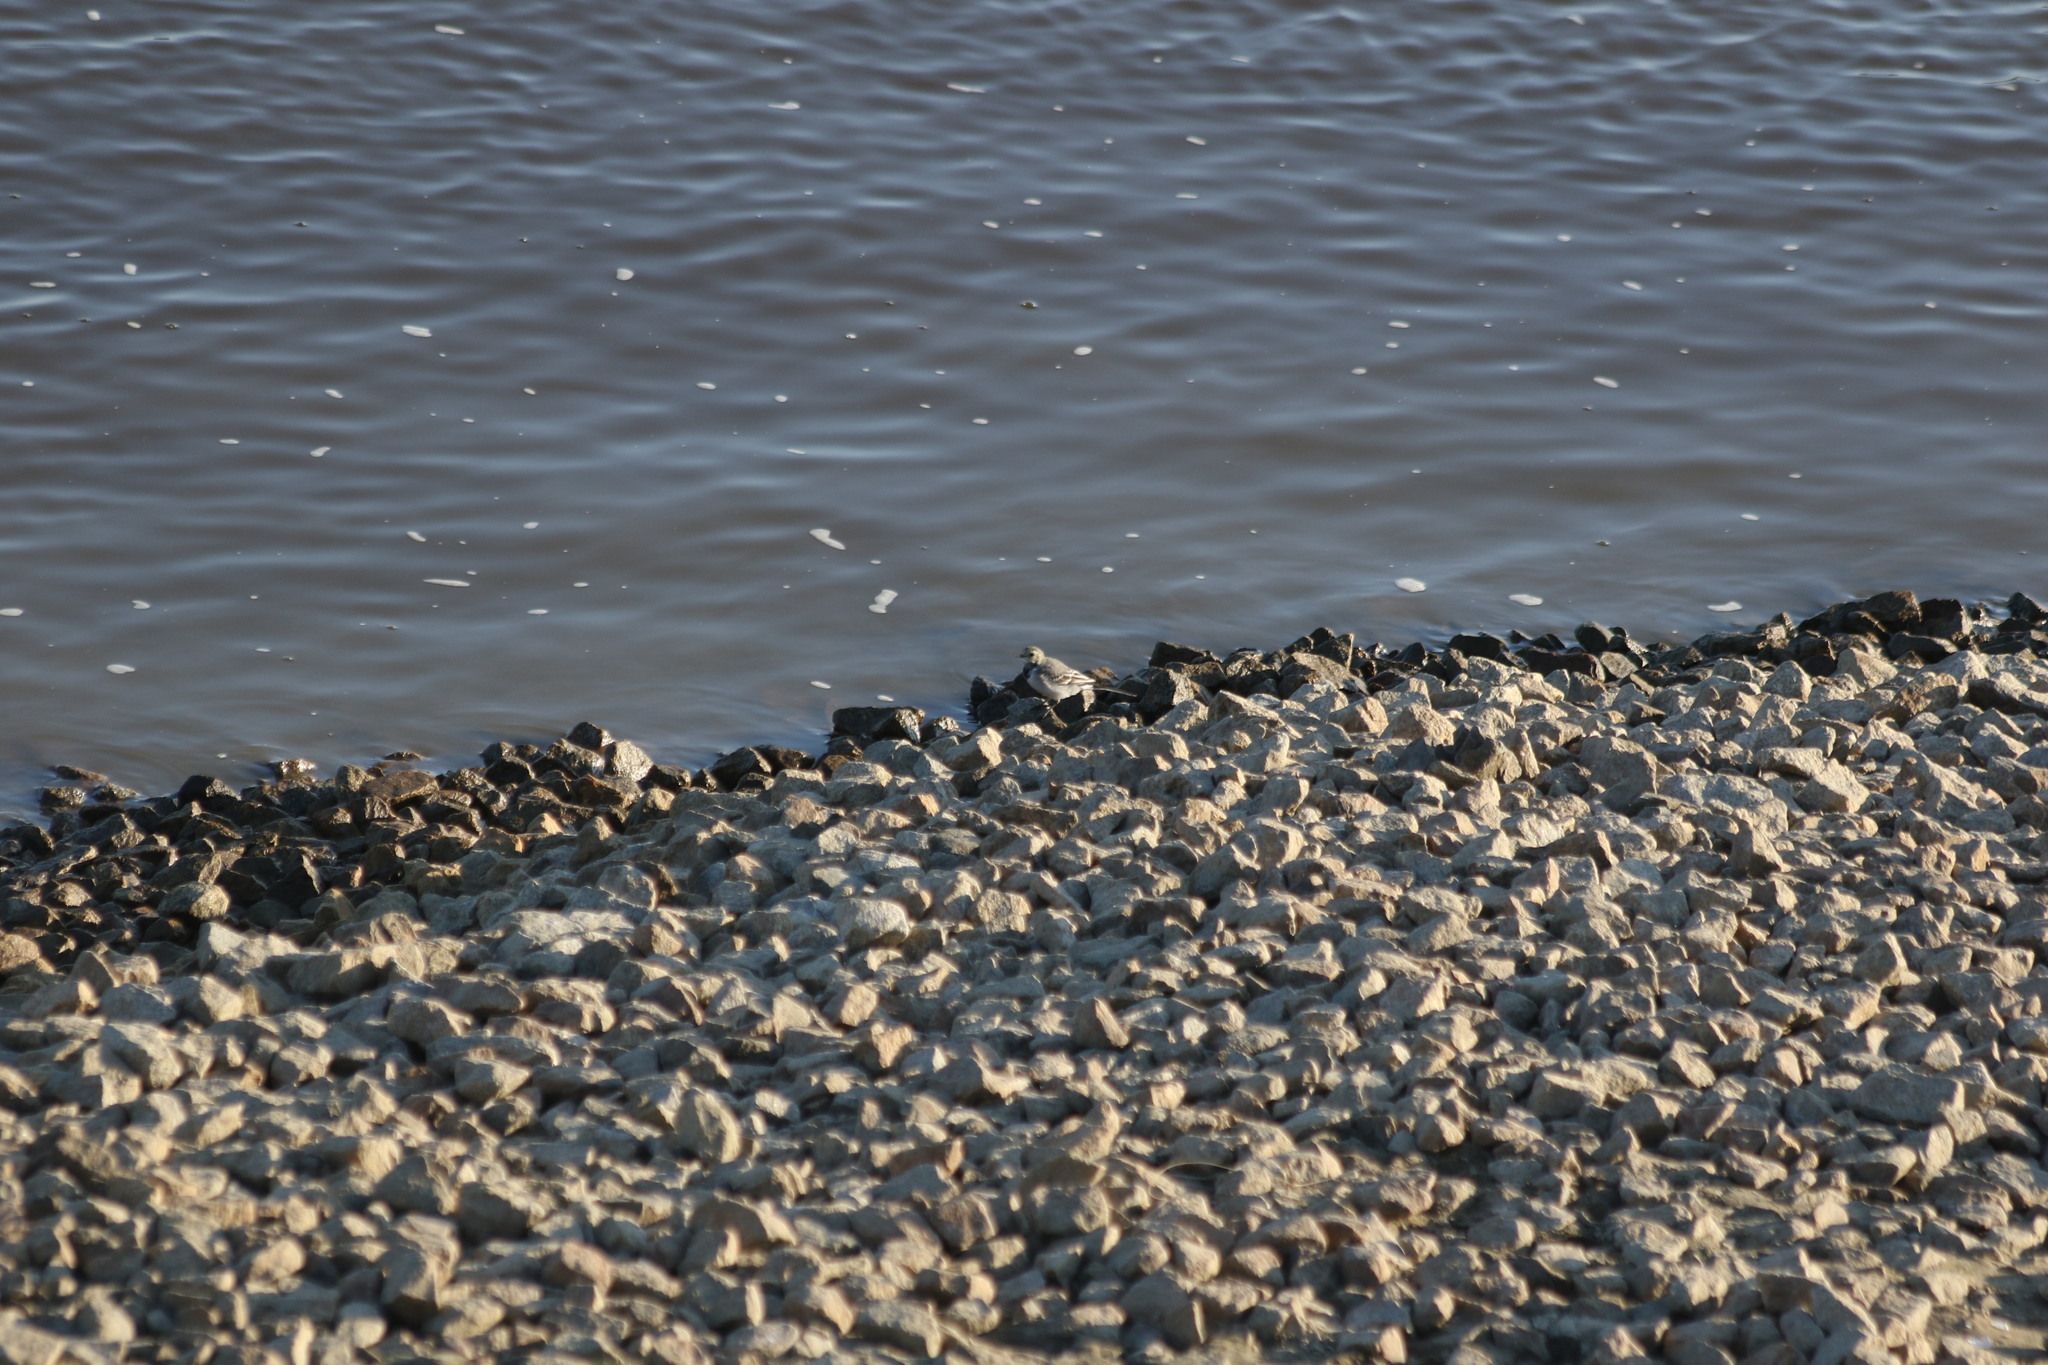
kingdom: Animalia
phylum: Chordata
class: Aves
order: Passeriformes
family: Motacillidae
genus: Motacilla
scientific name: Motacilla alba
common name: White wagtail
